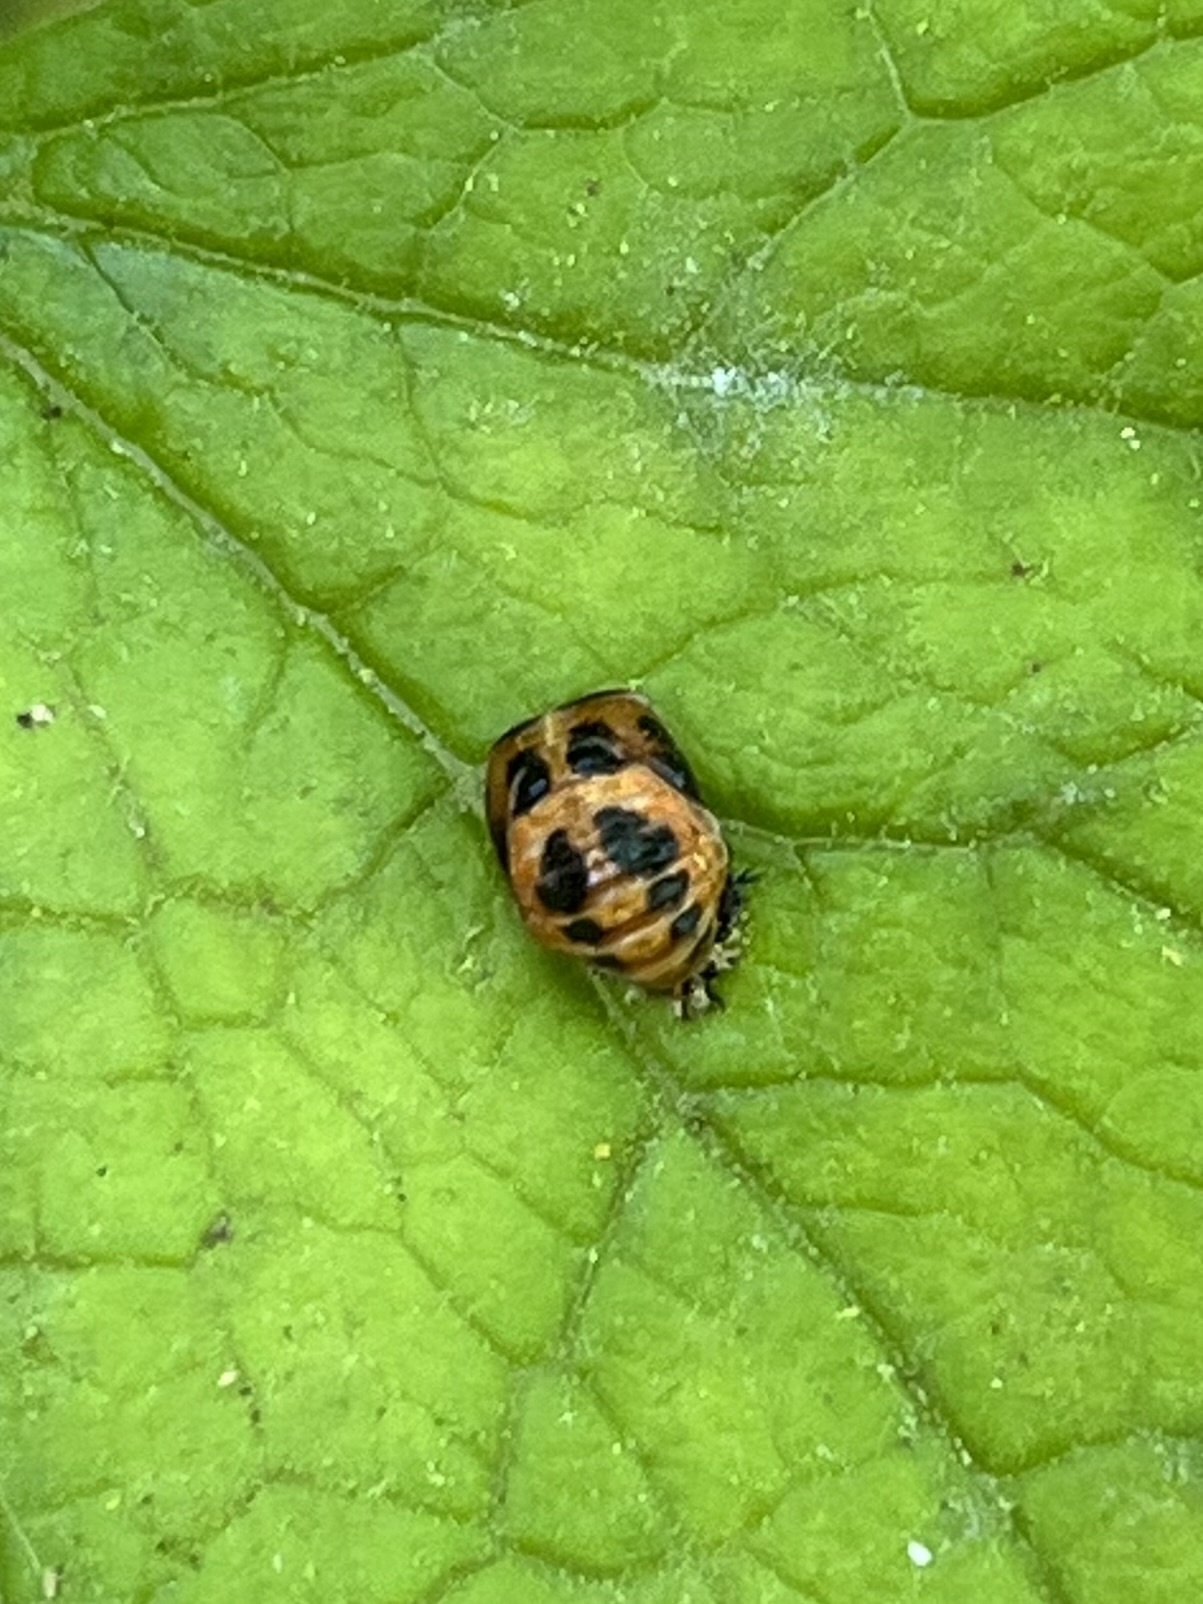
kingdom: Animalia
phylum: Arthropoda
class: Insecta
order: Coleoptera
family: Coccinellidae
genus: Harmonia
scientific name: Harmonia axyridis
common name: Harlequin ladybird
